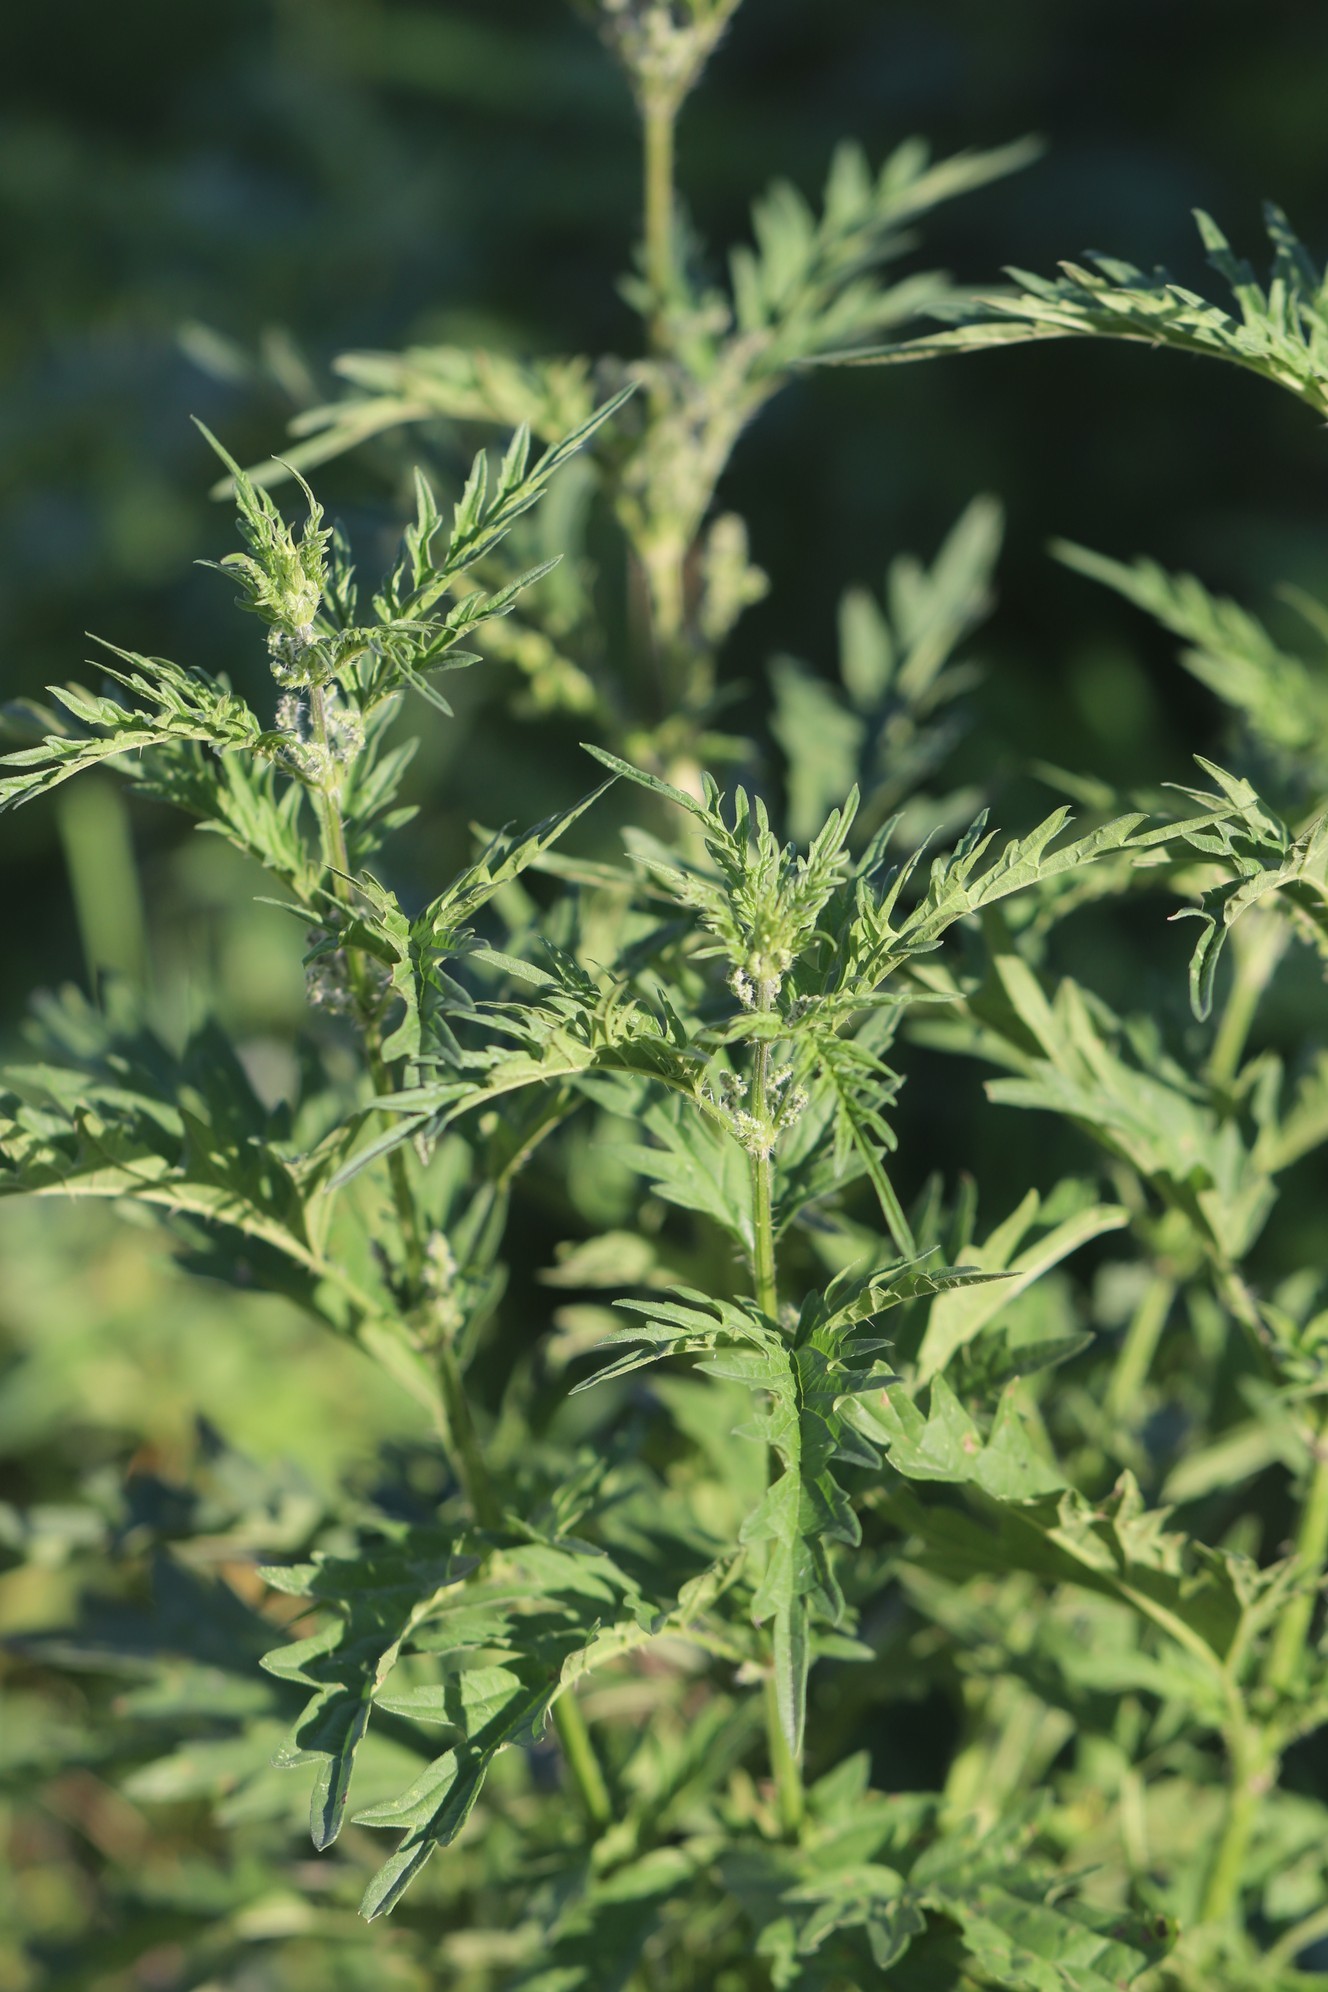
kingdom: Plantae
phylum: Tracheophyta
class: Magnoliopsida
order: Rosales
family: Urticaceae
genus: Urtica
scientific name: Urtica cannabina
